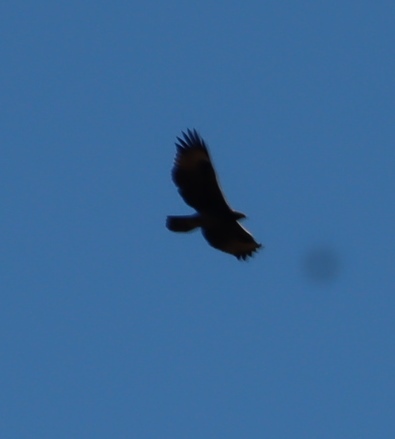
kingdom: Animalia
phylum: Chordata
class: Aves
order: Accipitriformes
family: Accipitridae
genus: Aquila
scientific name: Aquila verreauxii
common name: Verreaux's eagle
